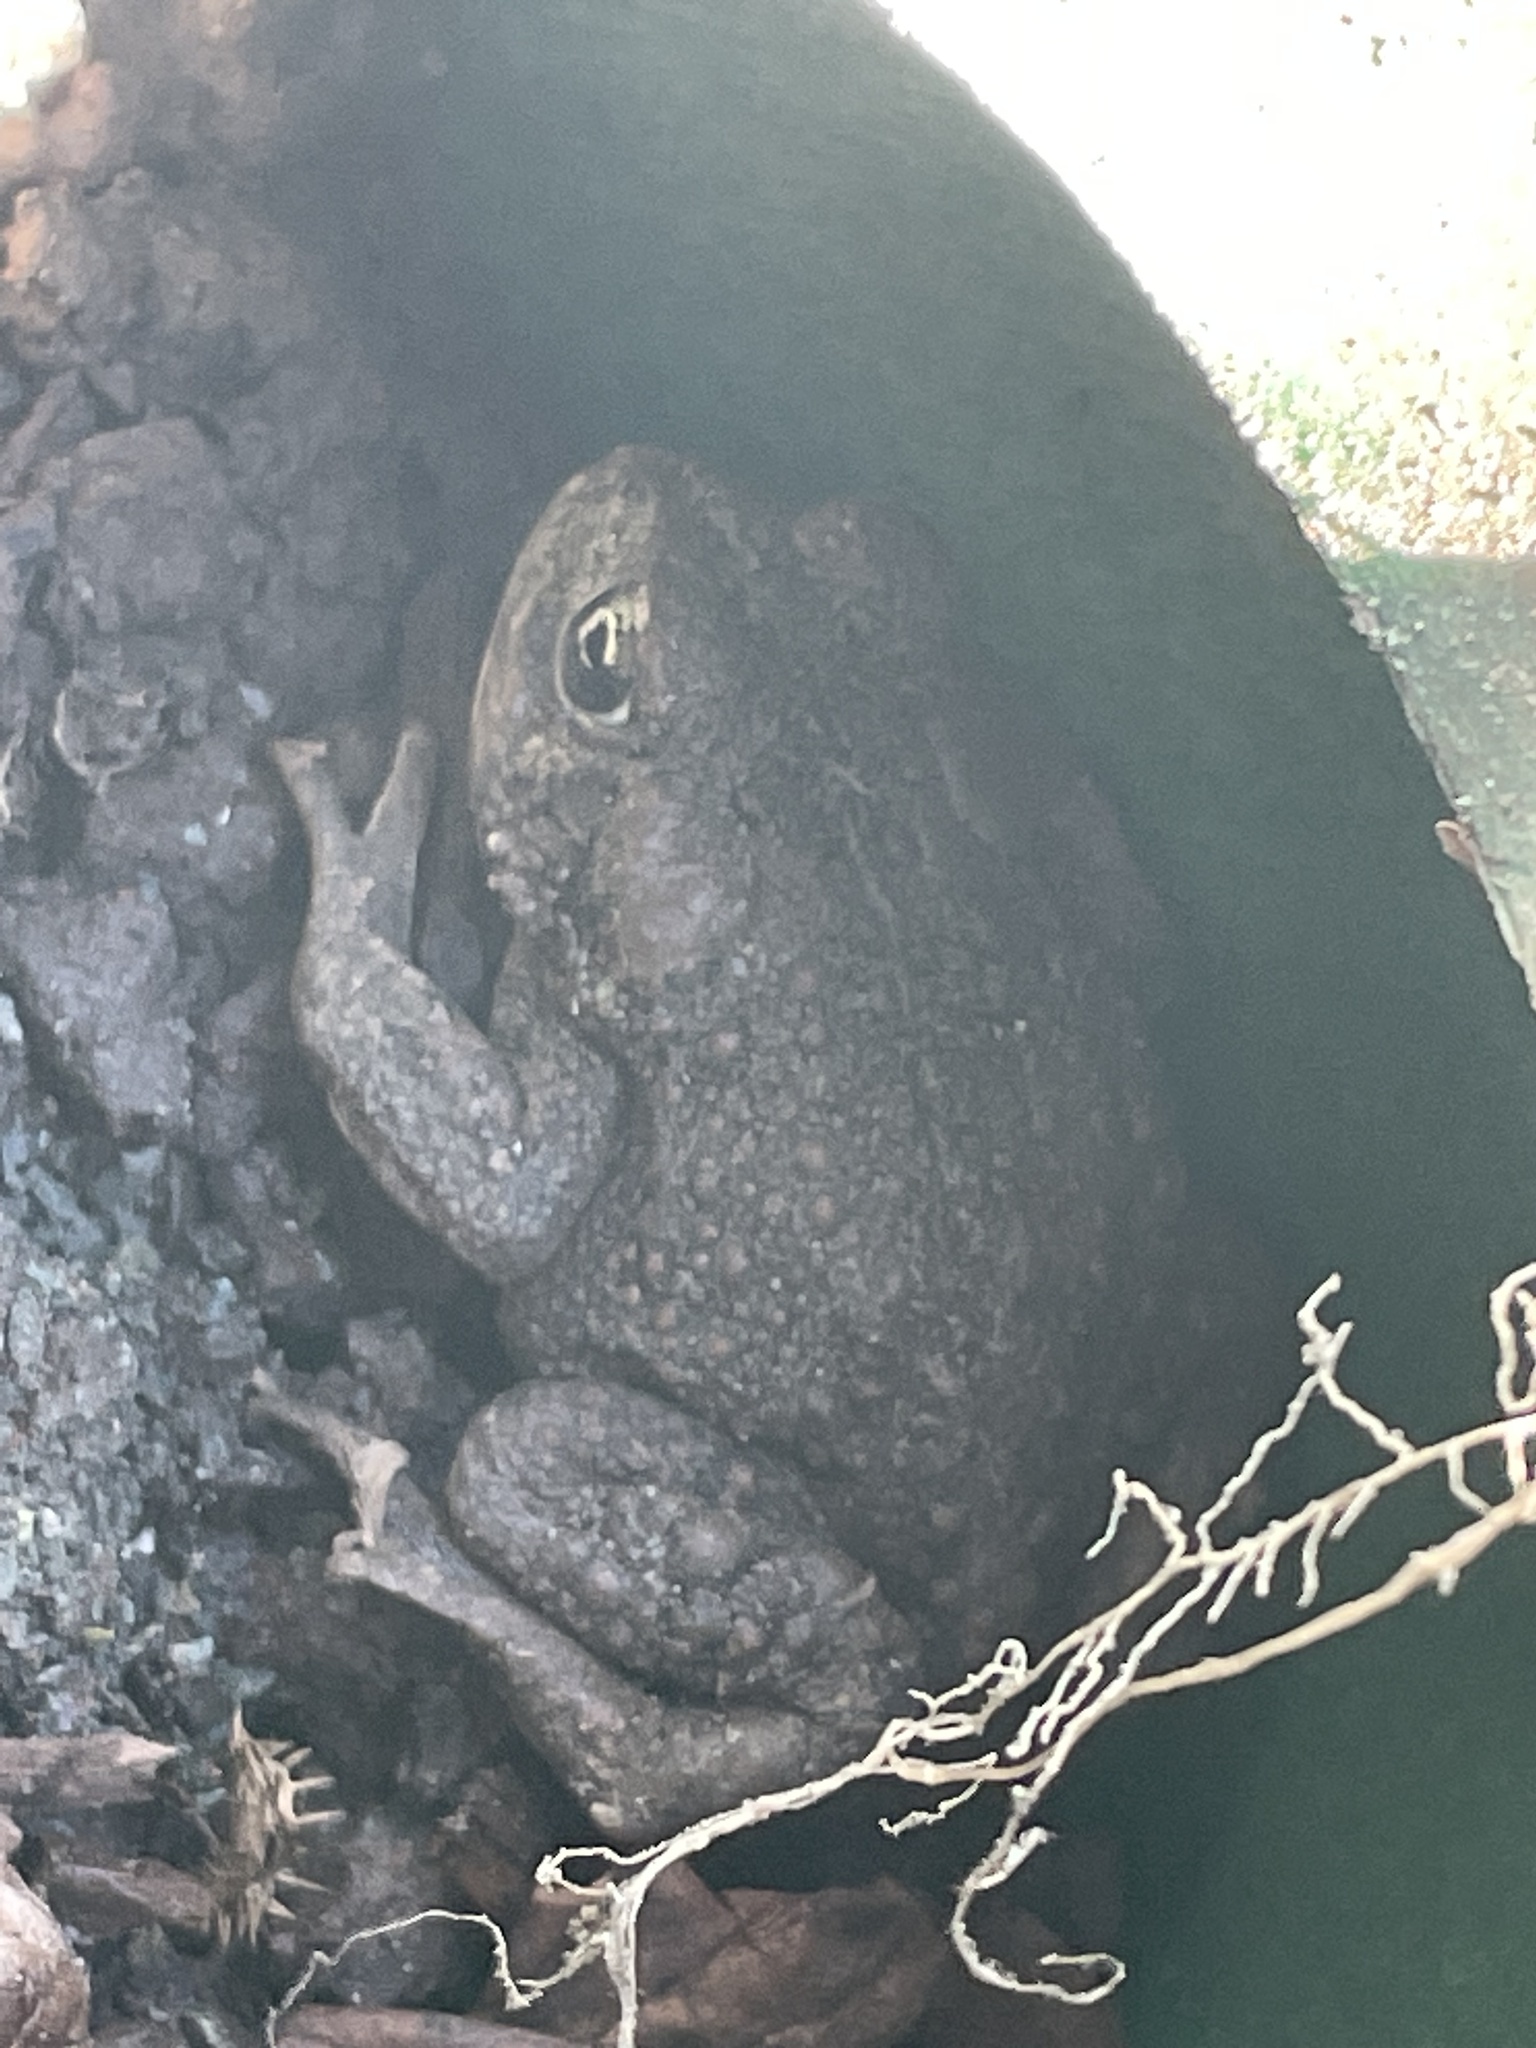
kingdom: Animalia
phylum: Chordata
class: Amphibia
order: Anura
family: Bufonidae
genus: Anaxyrus
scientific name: Anaxyrus boreas
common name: Western toad
